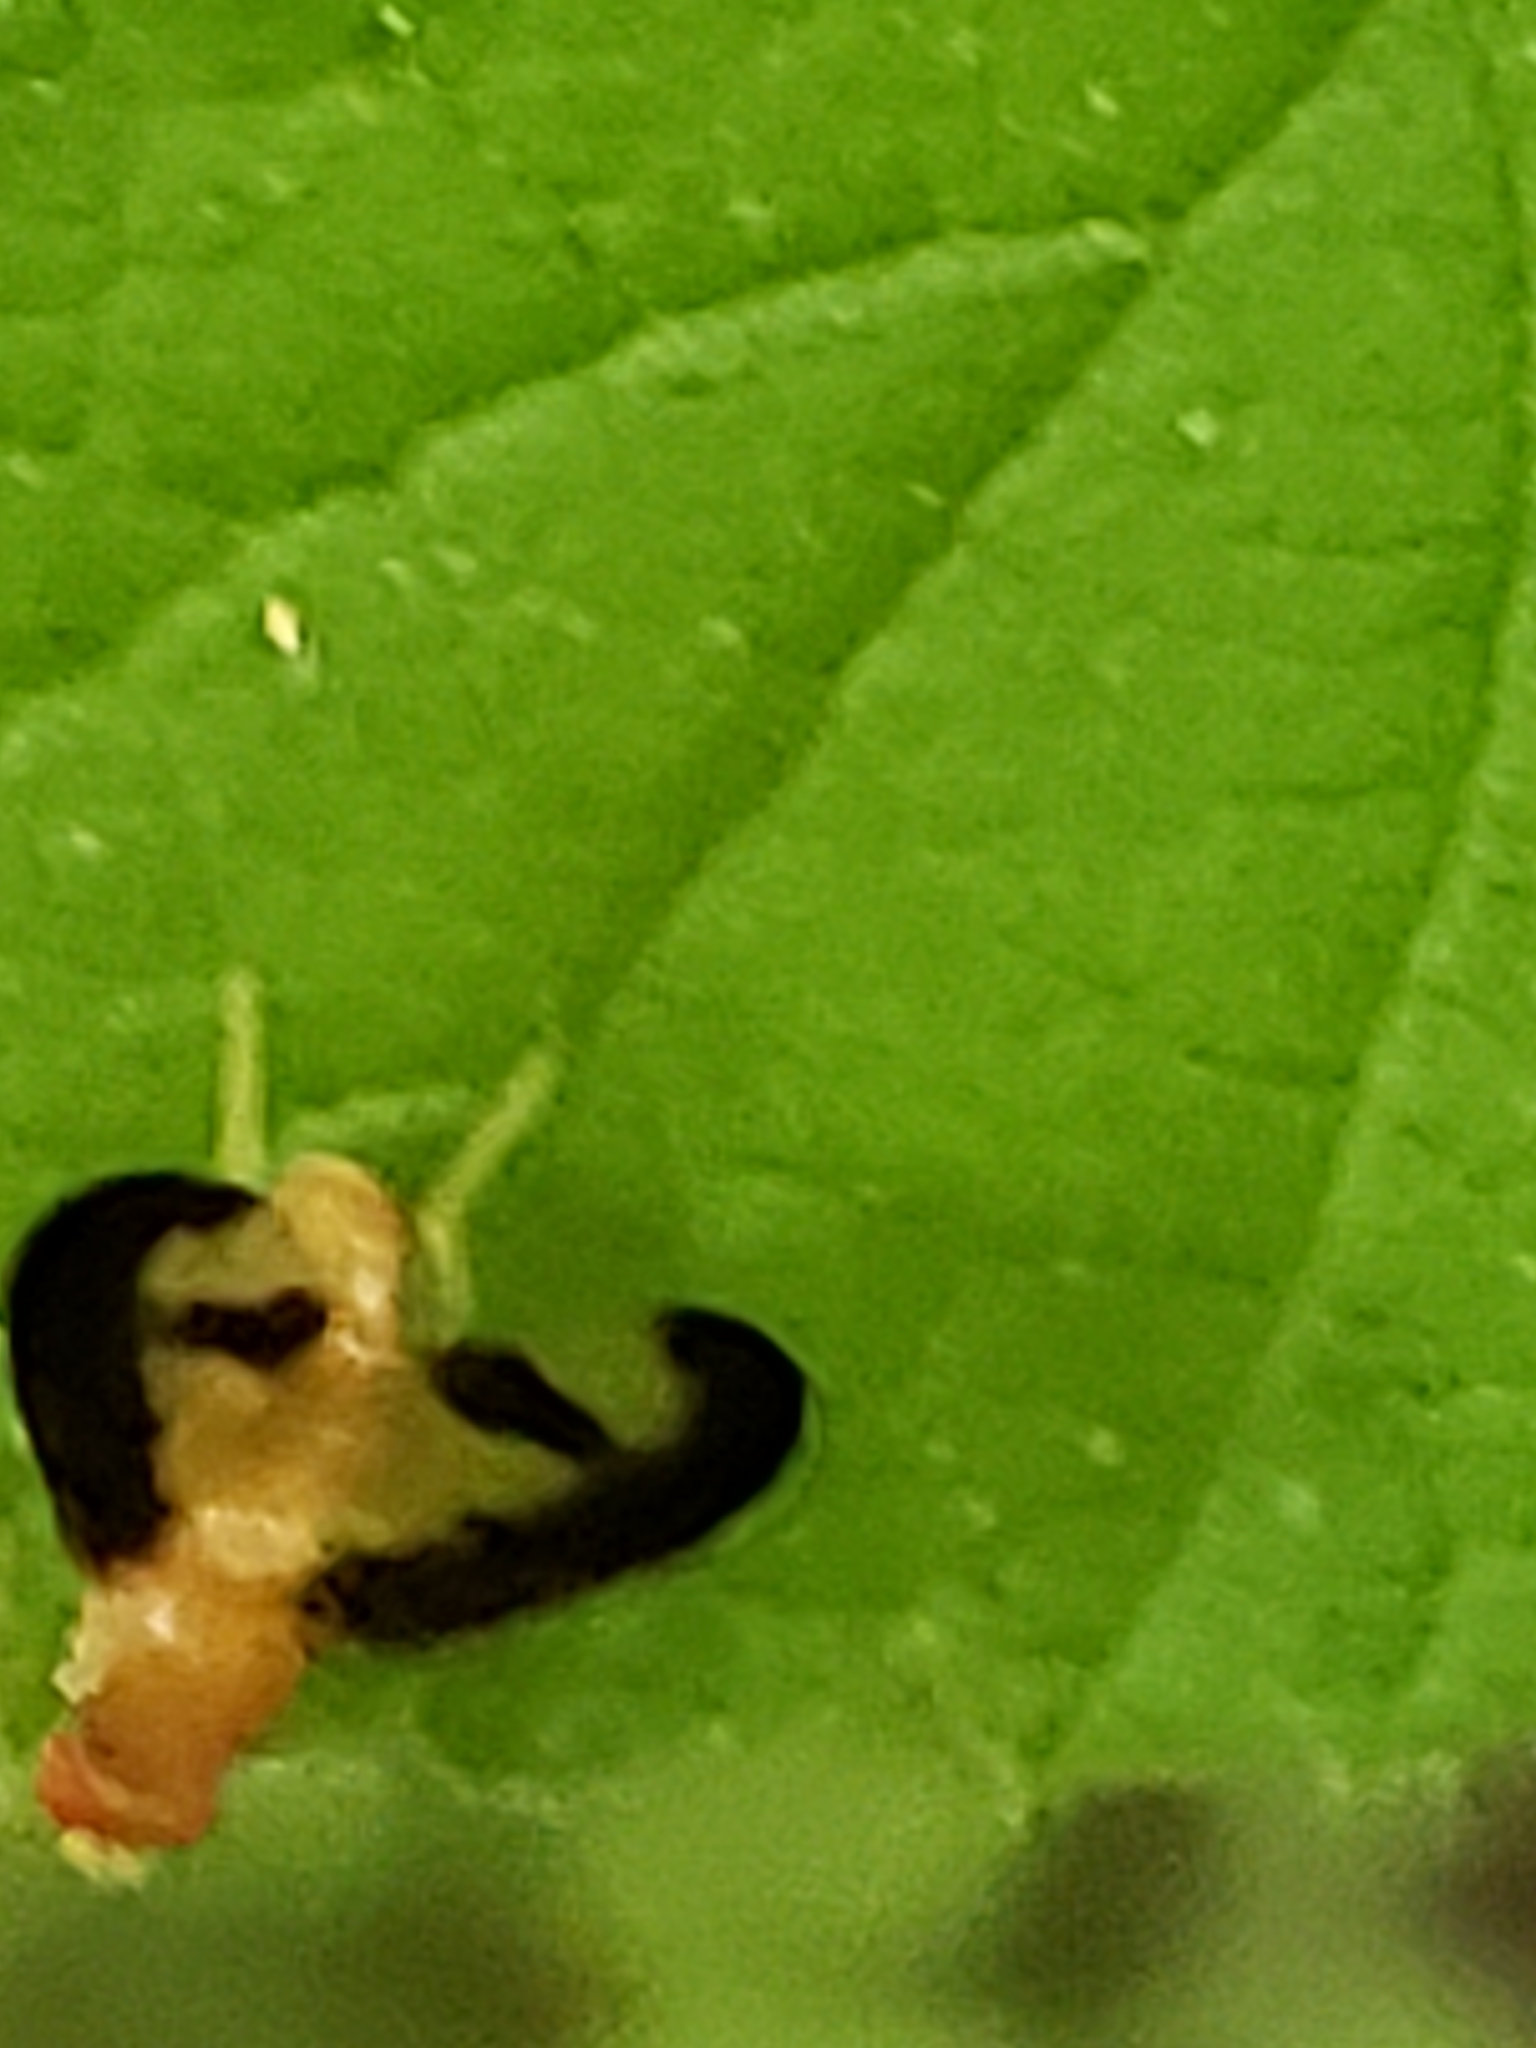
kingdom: Animalia
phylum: Arthropoda
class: Insecta
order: Diptera
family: Pallopteridae
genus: Toxonevra
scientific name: Toxonevra superba
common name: Antlered flutter fly
